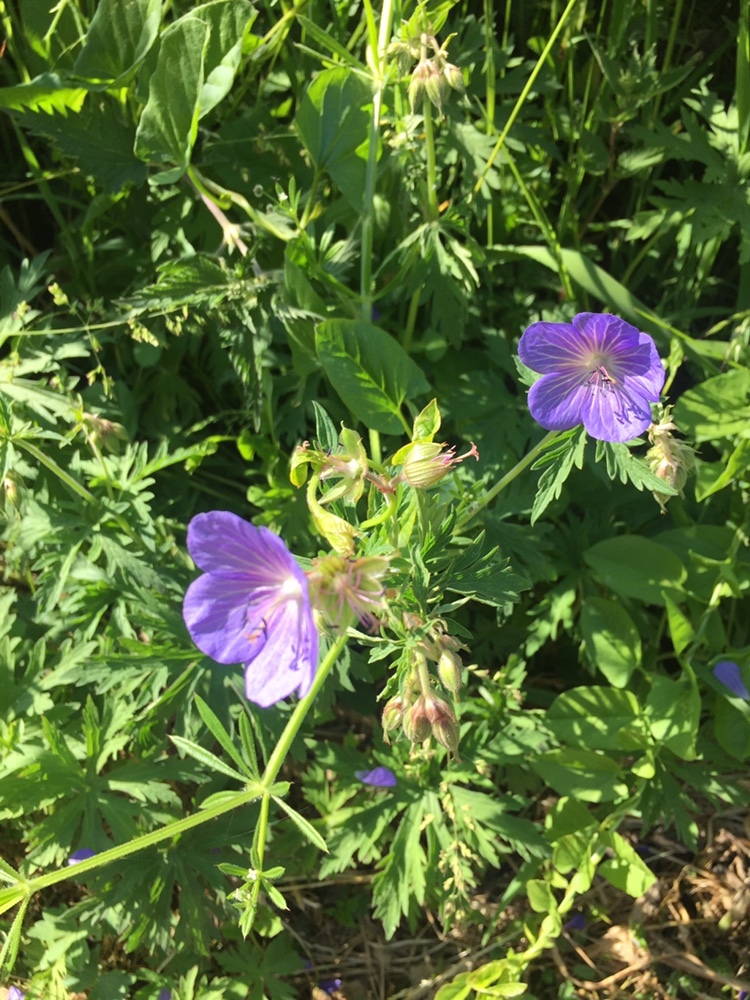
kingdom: Plantae
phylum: Tracheophyta
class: Magnoliopsida
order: Geraniales
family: Geraniaceae
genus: Geranium
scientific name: Geranium pratense
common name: Meadow crane's-bill
